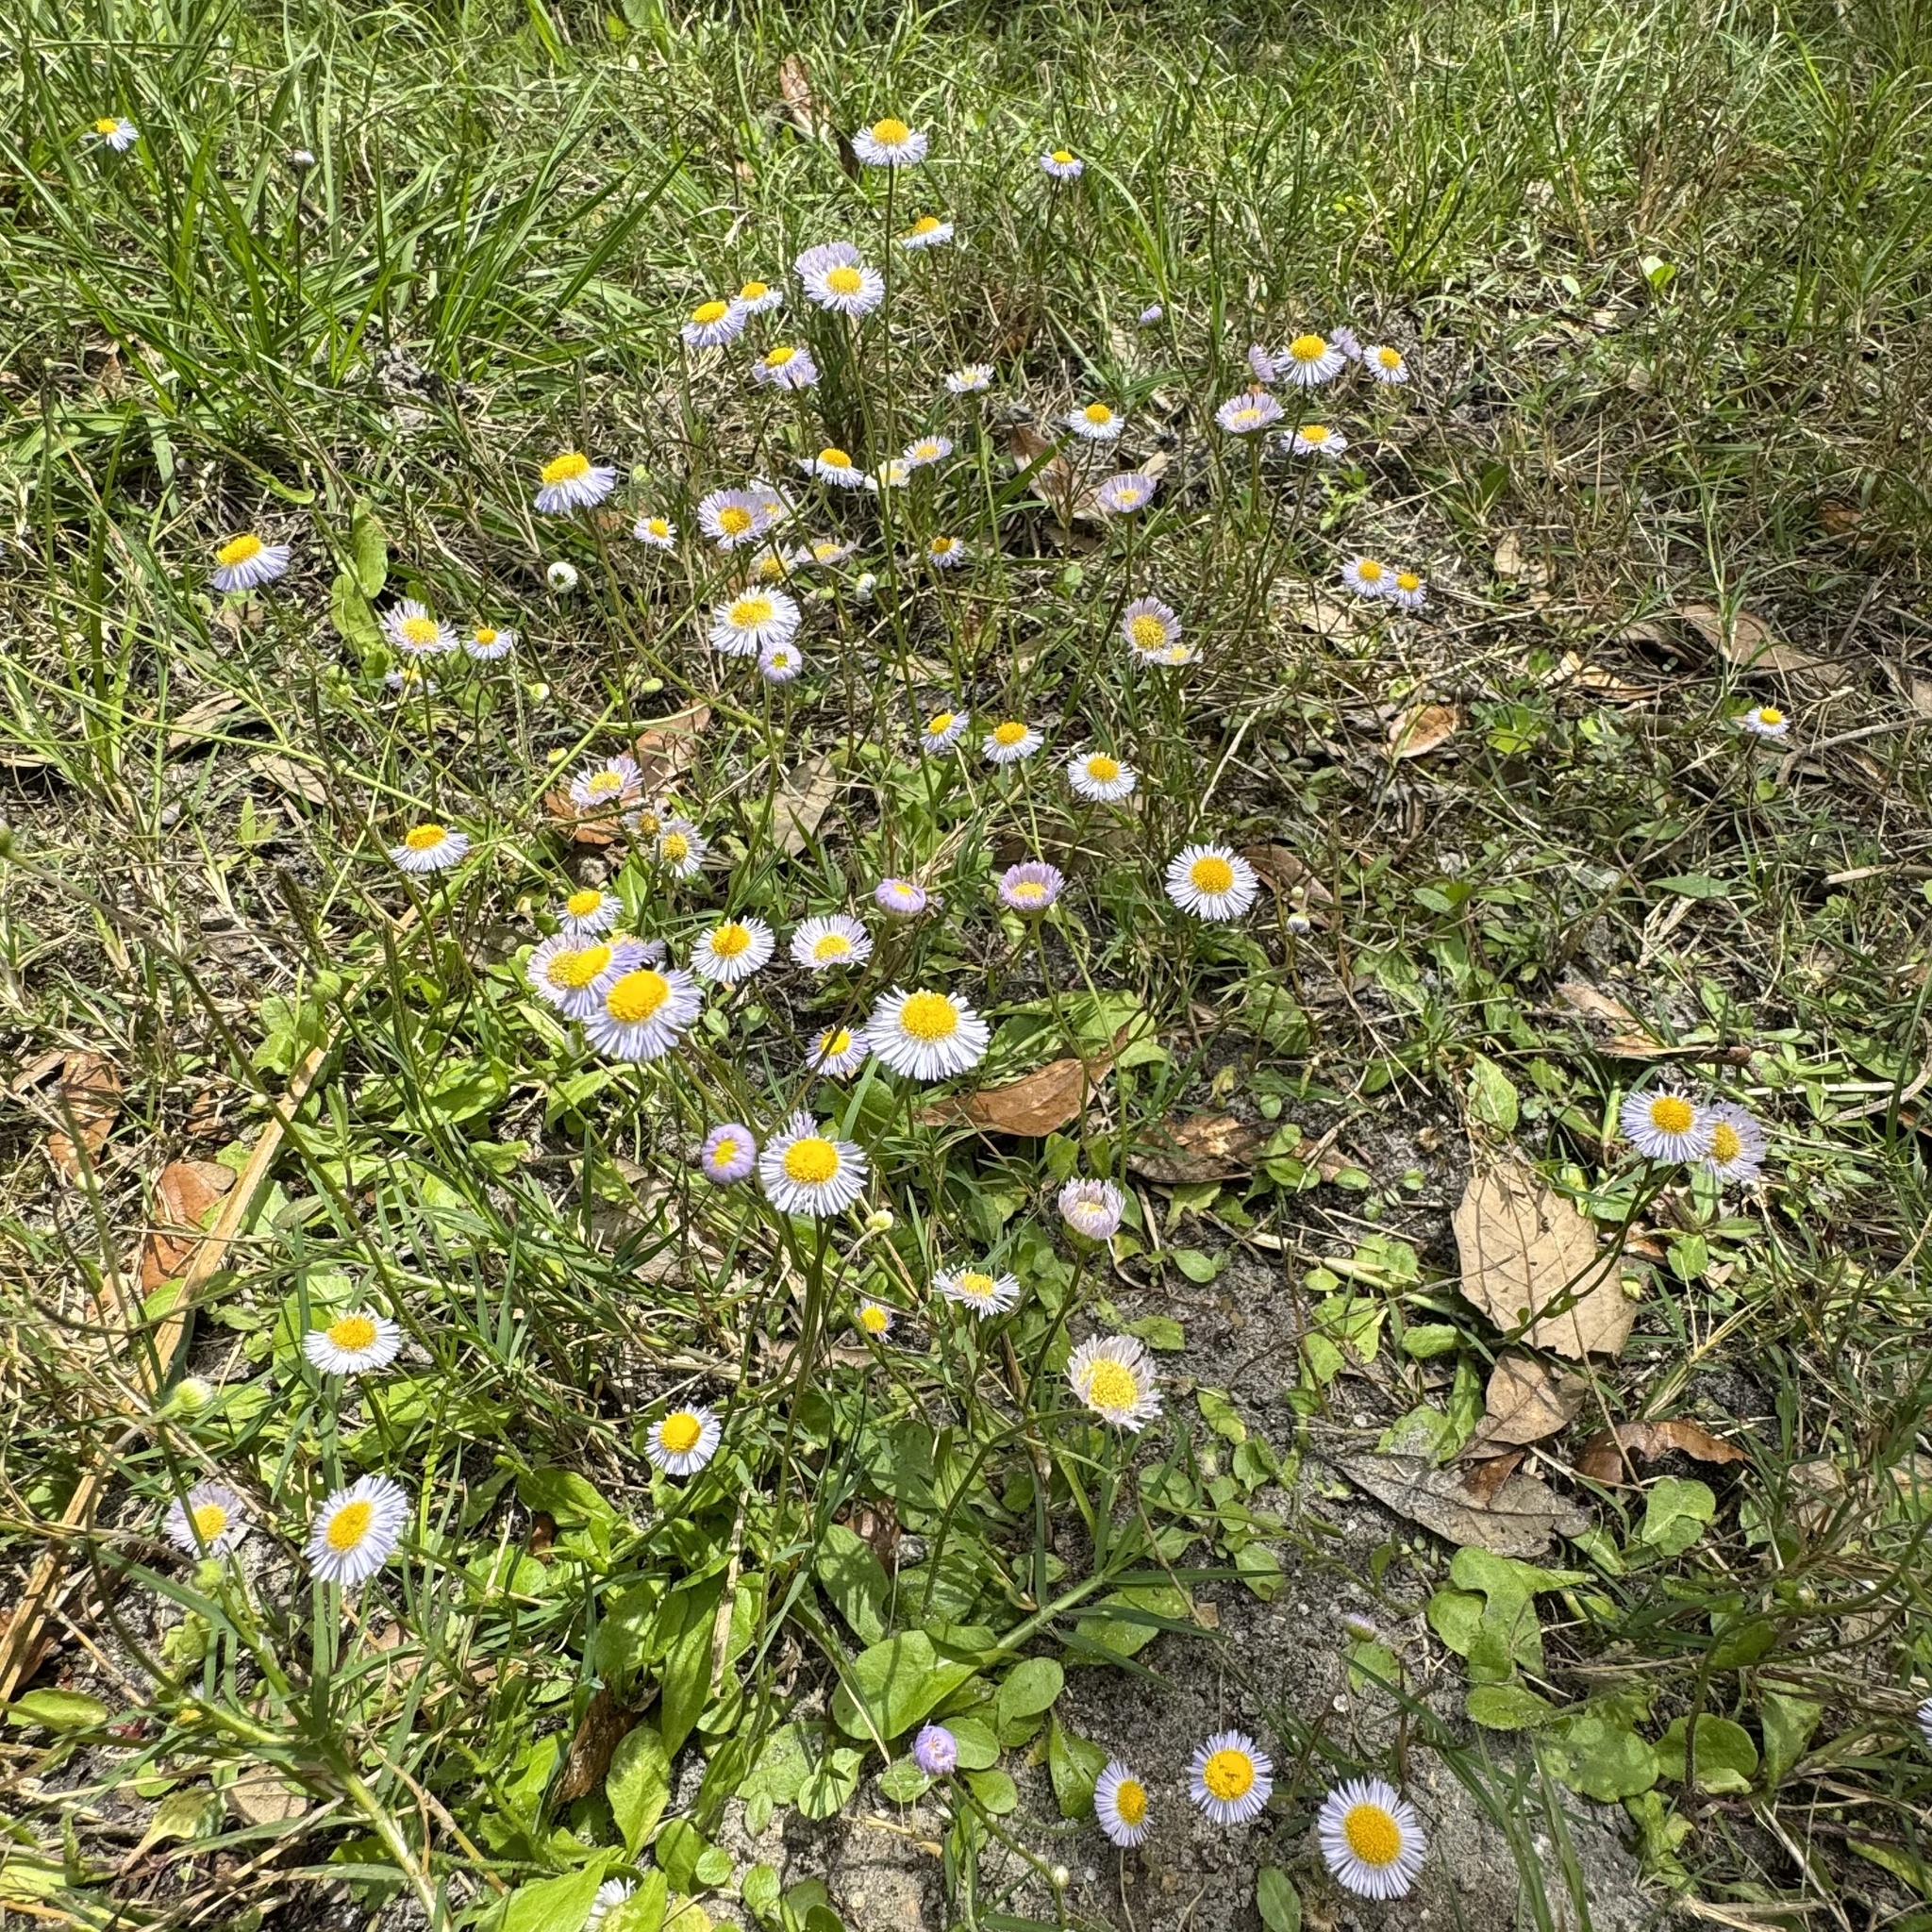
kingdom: Plantae
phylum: Tracheophyta
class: Magnoliopsida
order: Asterales
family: Asteraceae
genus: Erigeron
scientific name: Erigeron quercifolius
